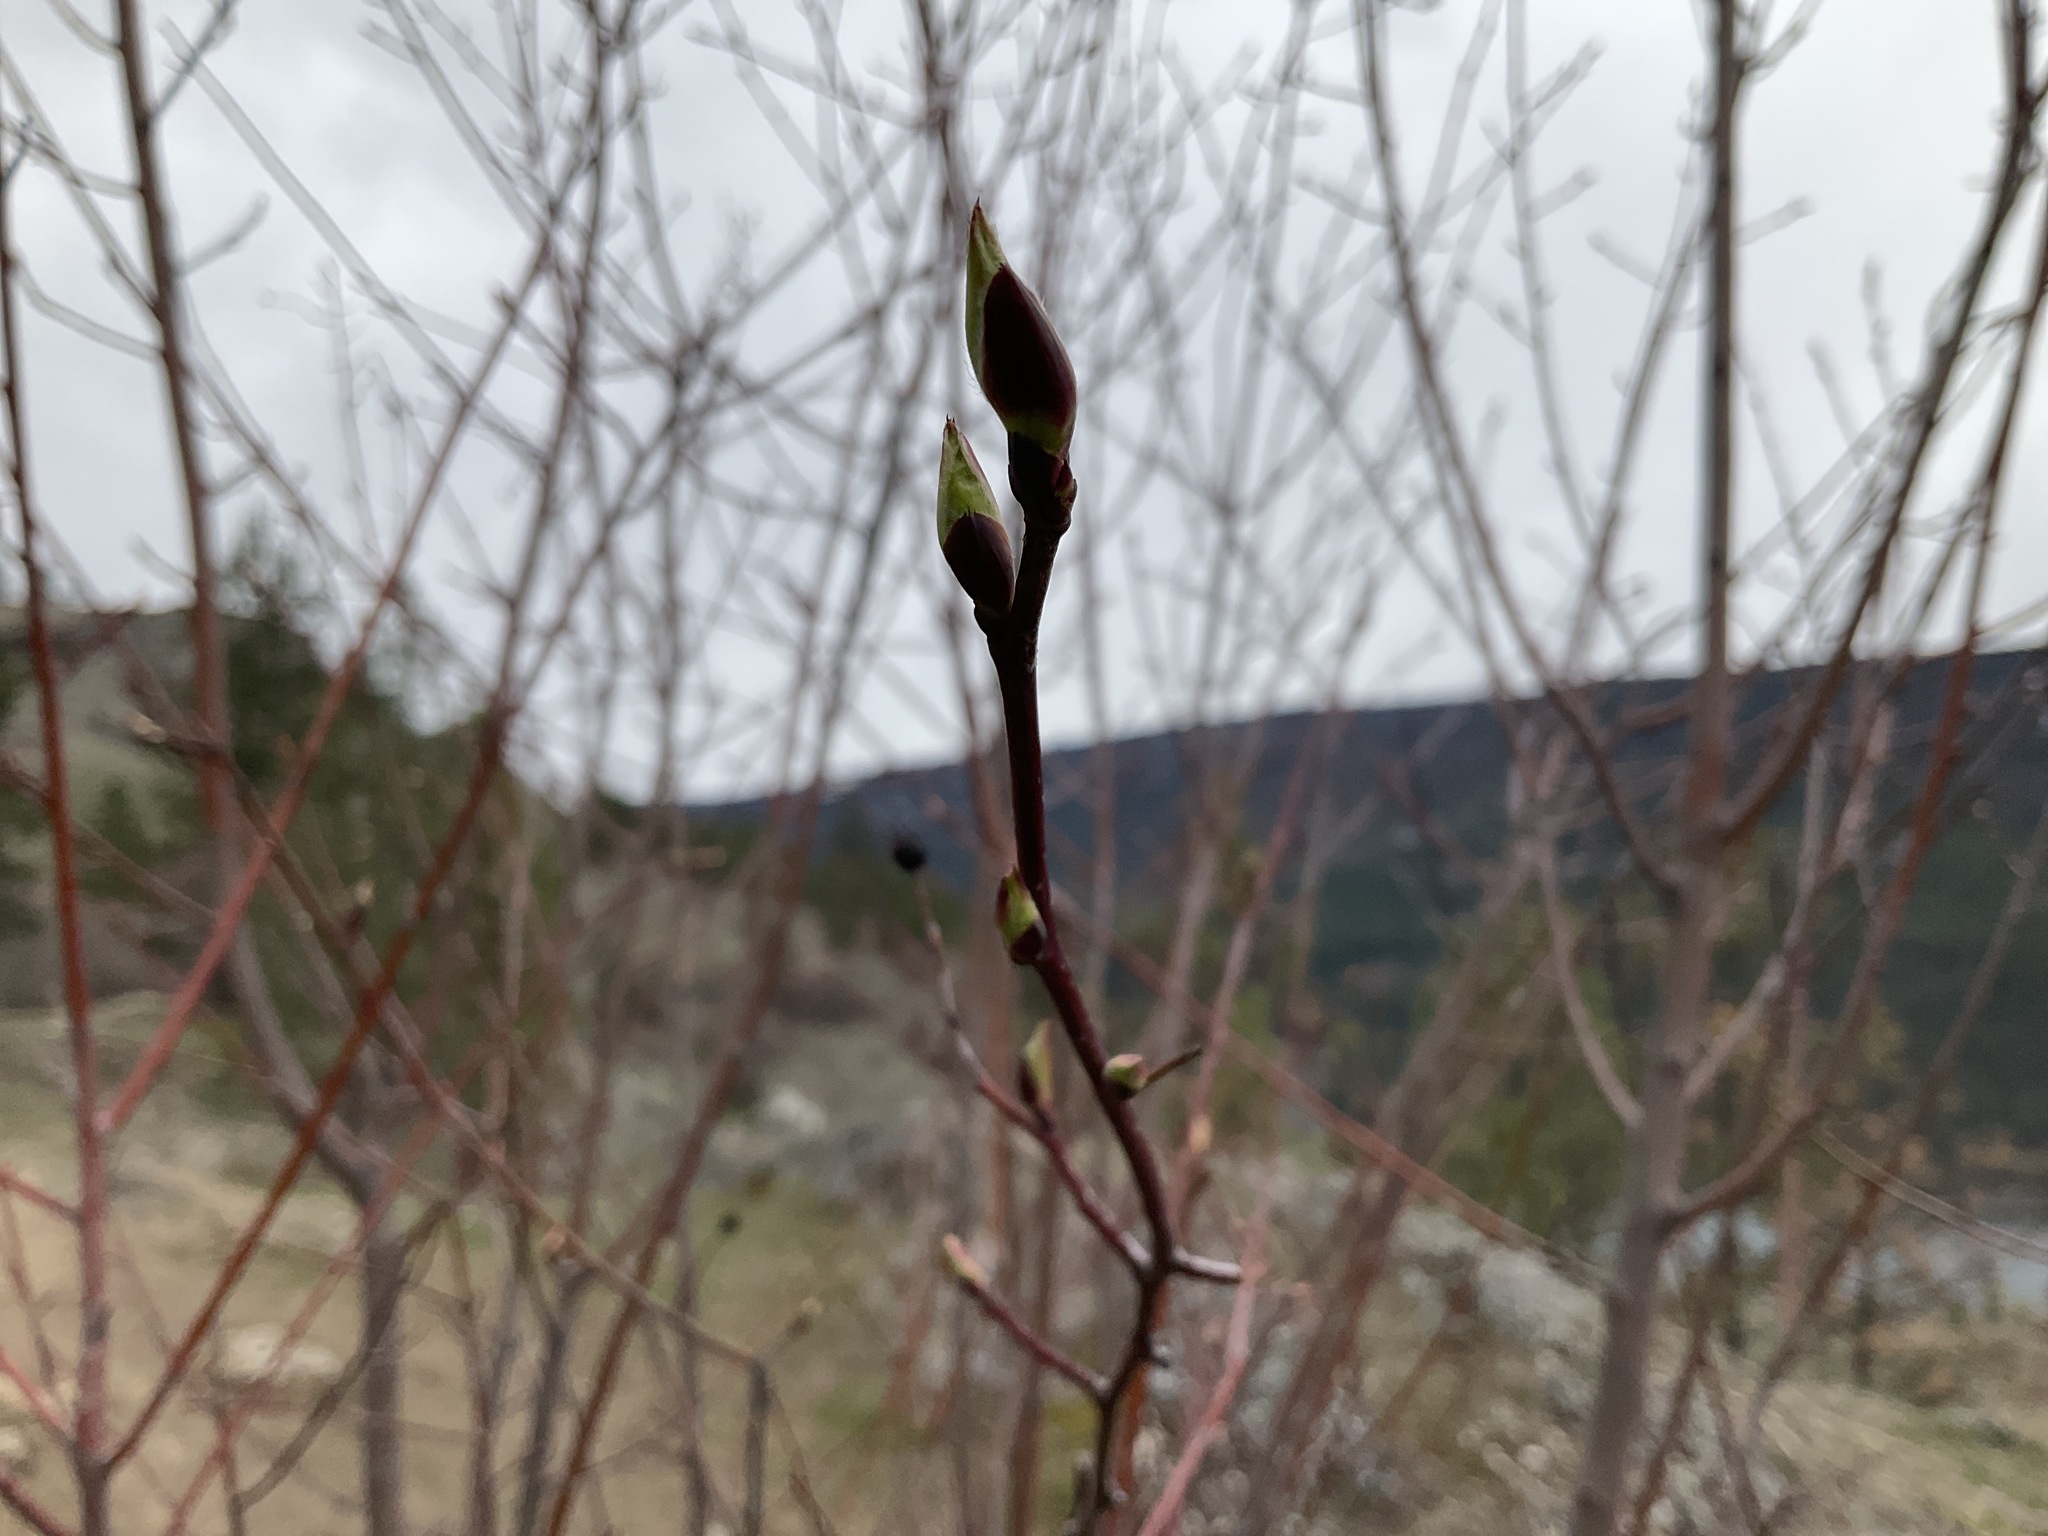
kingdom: Plantae
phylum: Tracheophyta
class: Magnoliopsida
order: Rosales
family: Rosaceae
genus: Amelanchier
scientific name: Amelanchier alnifolia
